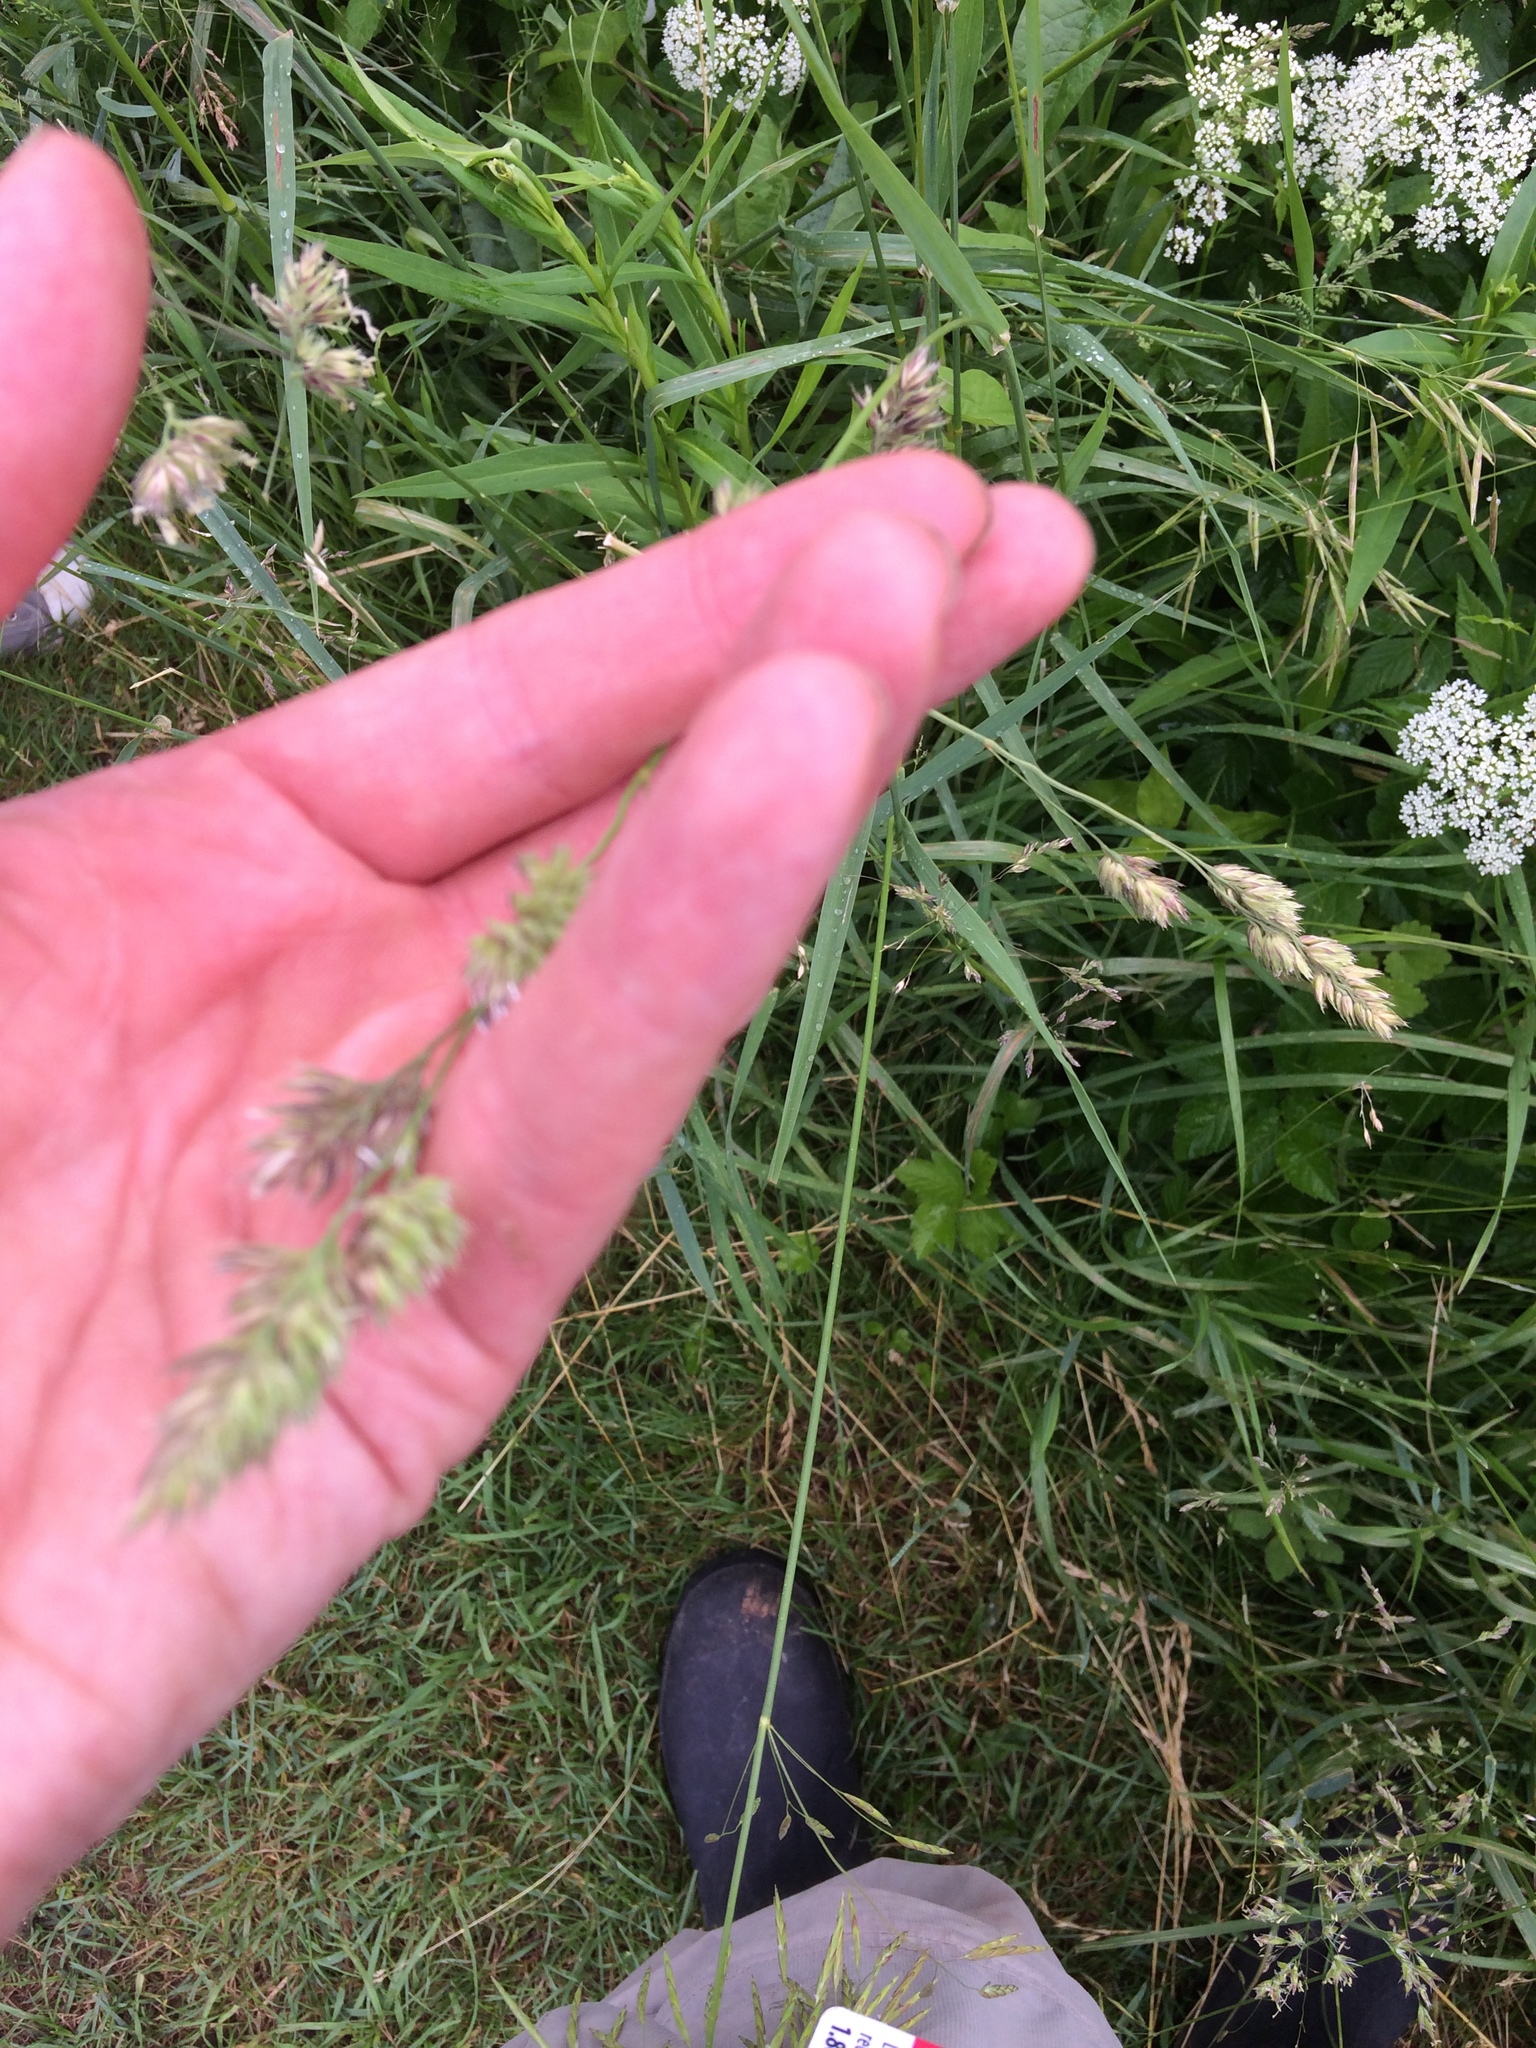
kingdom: Plantae
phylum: Tracheophyta
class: Liliopsida
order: Poales
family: Poaceae
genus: Dactylis
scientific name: Dactylis glomerata
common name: Orchardgrass
